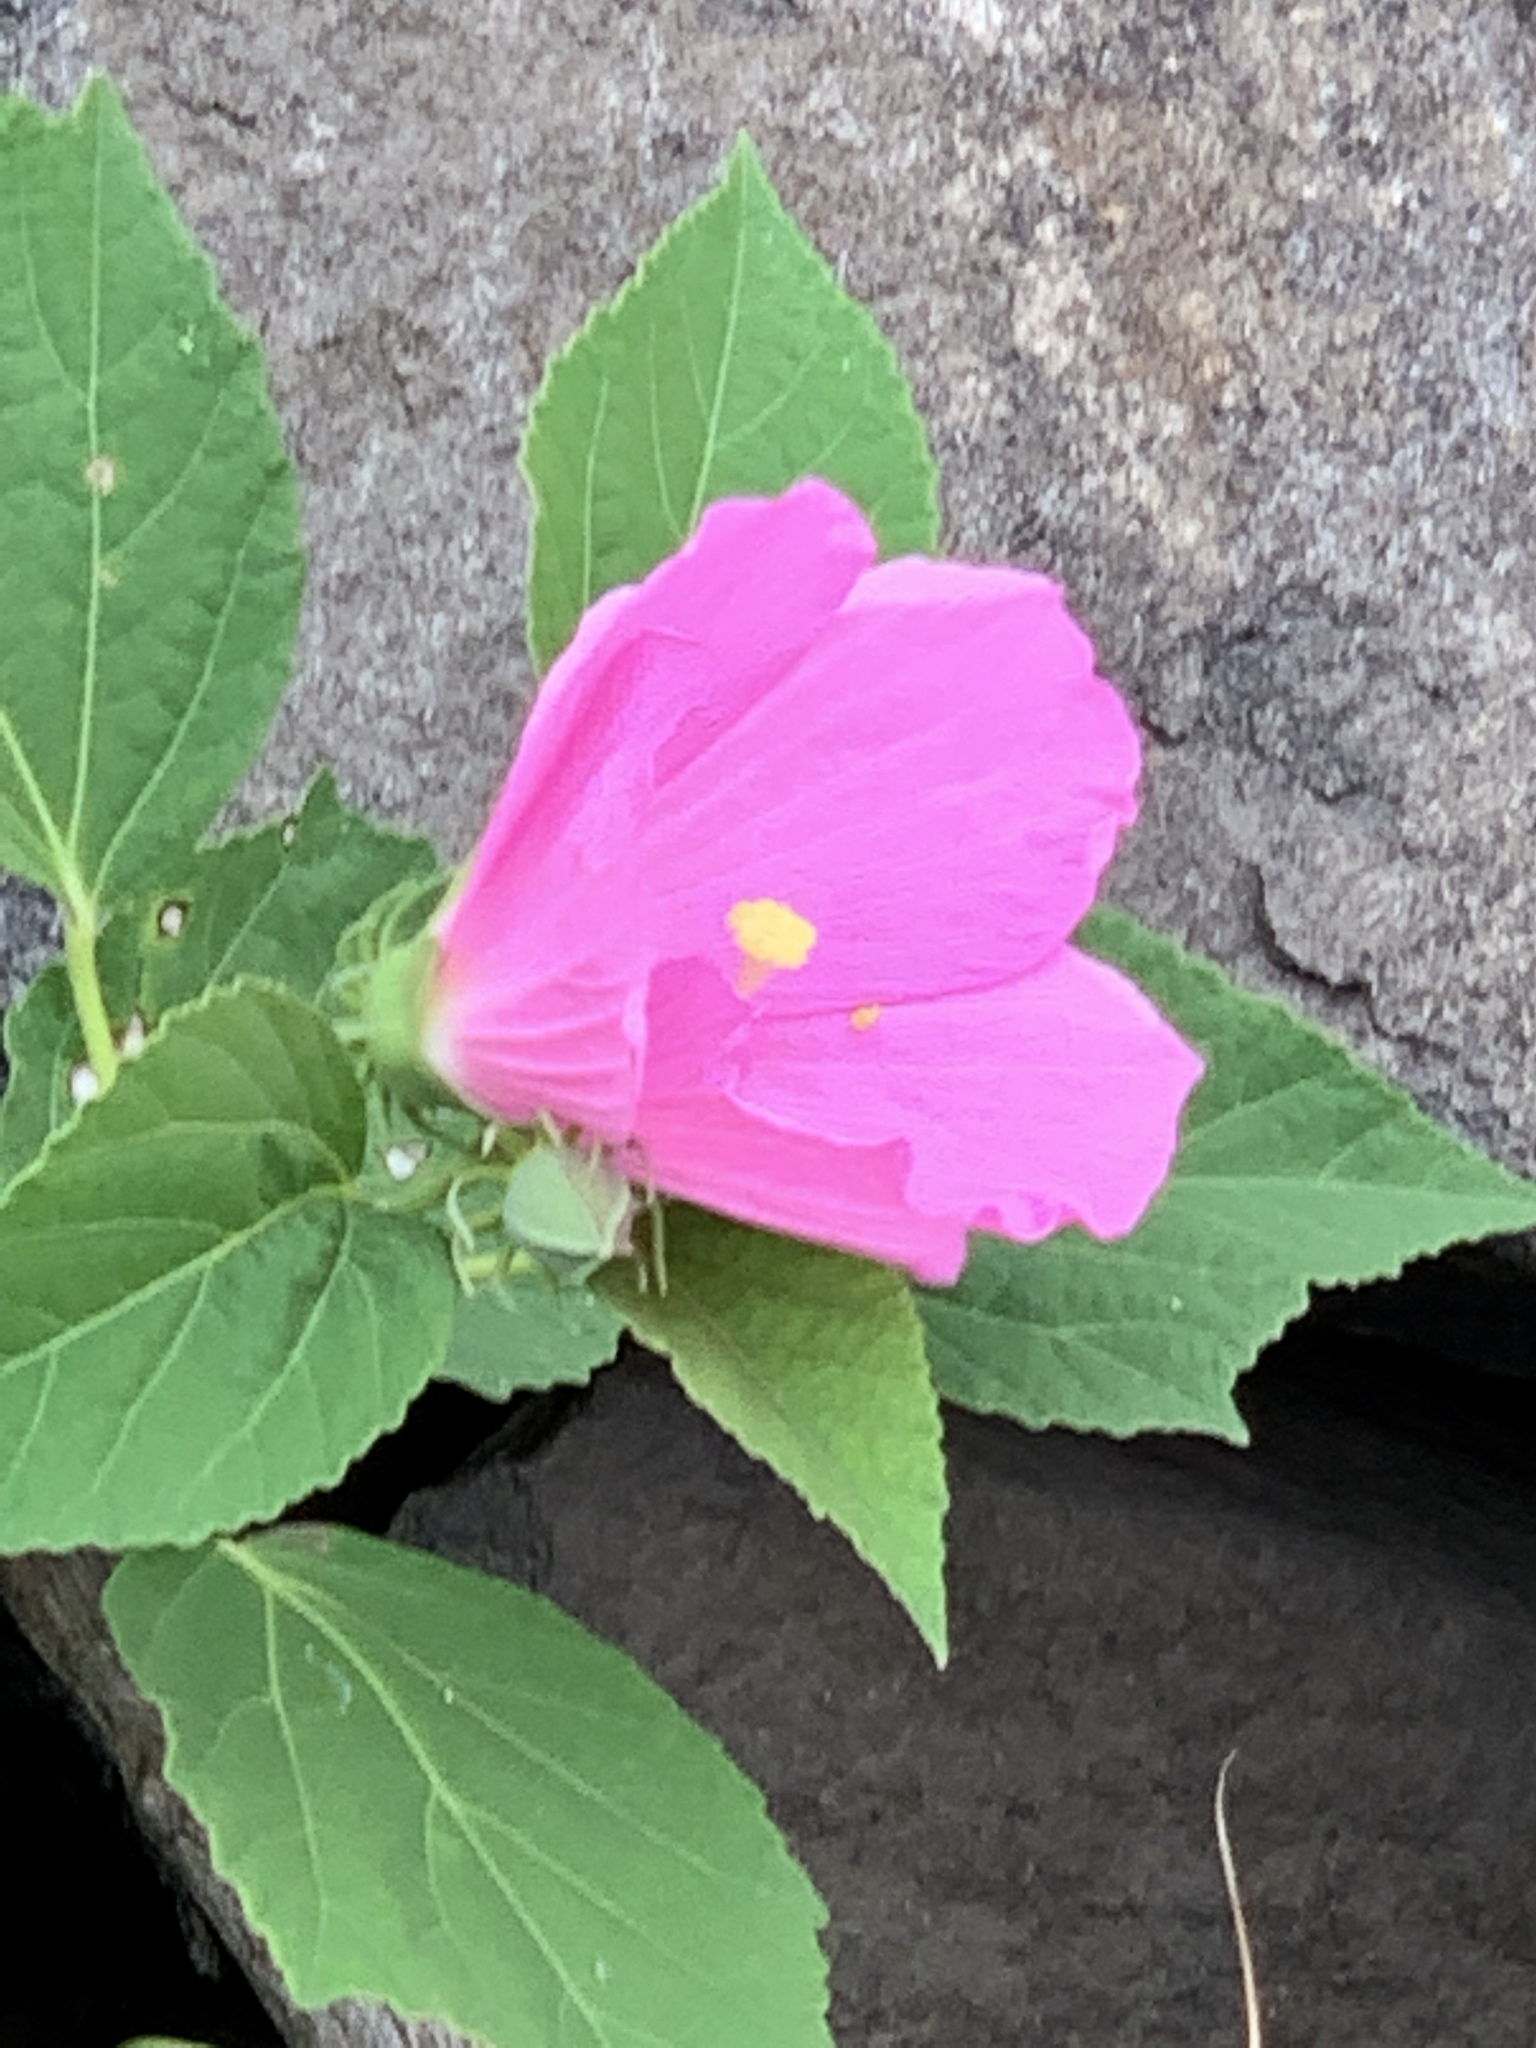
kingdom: Plantae
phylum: Tracheophyta
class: Magnoliopsida
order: Malvales
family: Malvaceae
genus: Hibiscus
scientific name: Hibiscus moscheutos
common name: Common rose-mallow
